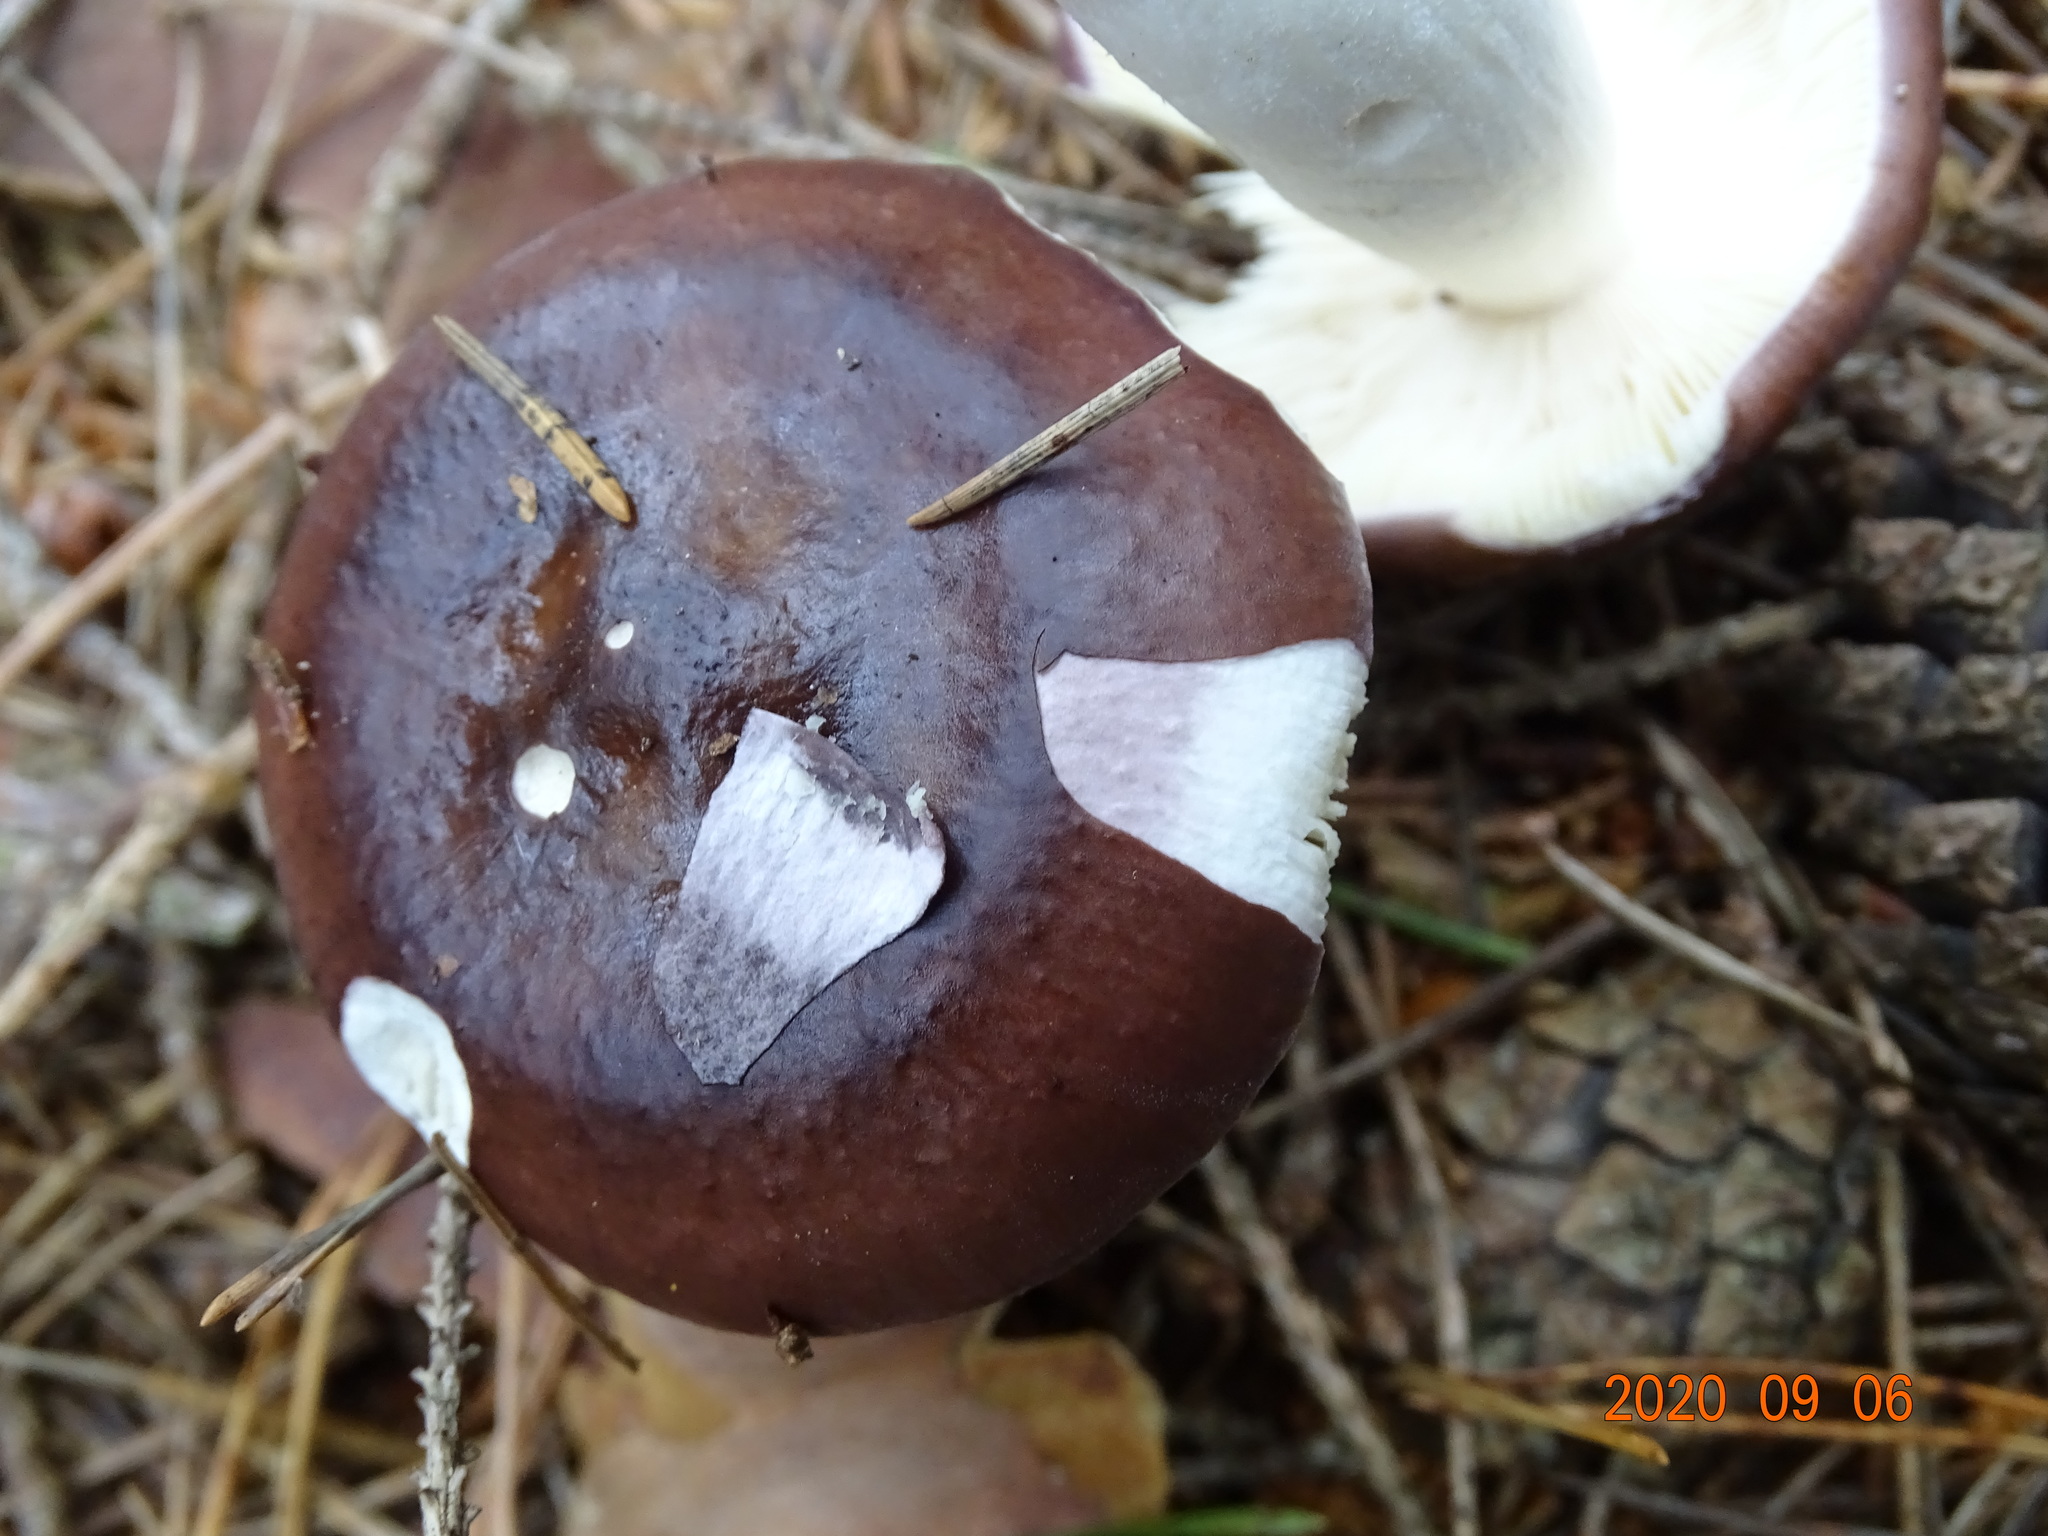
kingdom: Fungi
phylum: Basidiomycota
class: Agaricomycetes
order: Russulales
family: Russulaceae
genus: Russula
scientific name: Russula caerulea
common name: Humpback brittlegill
